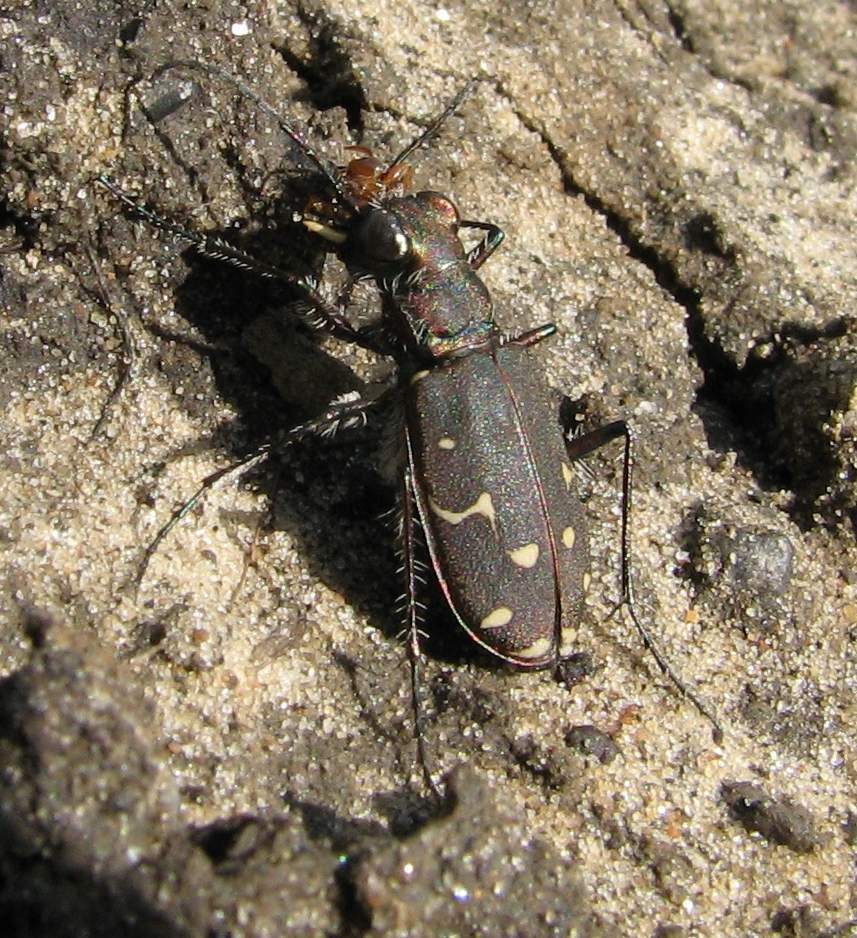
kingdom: Animalia
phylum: Arthropoda
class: Insecta
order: Coleoptera
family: Carabidae
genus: Cicindela
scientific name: Cicindela duodecimguttata
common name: Twelve-spotted tiger beetle
